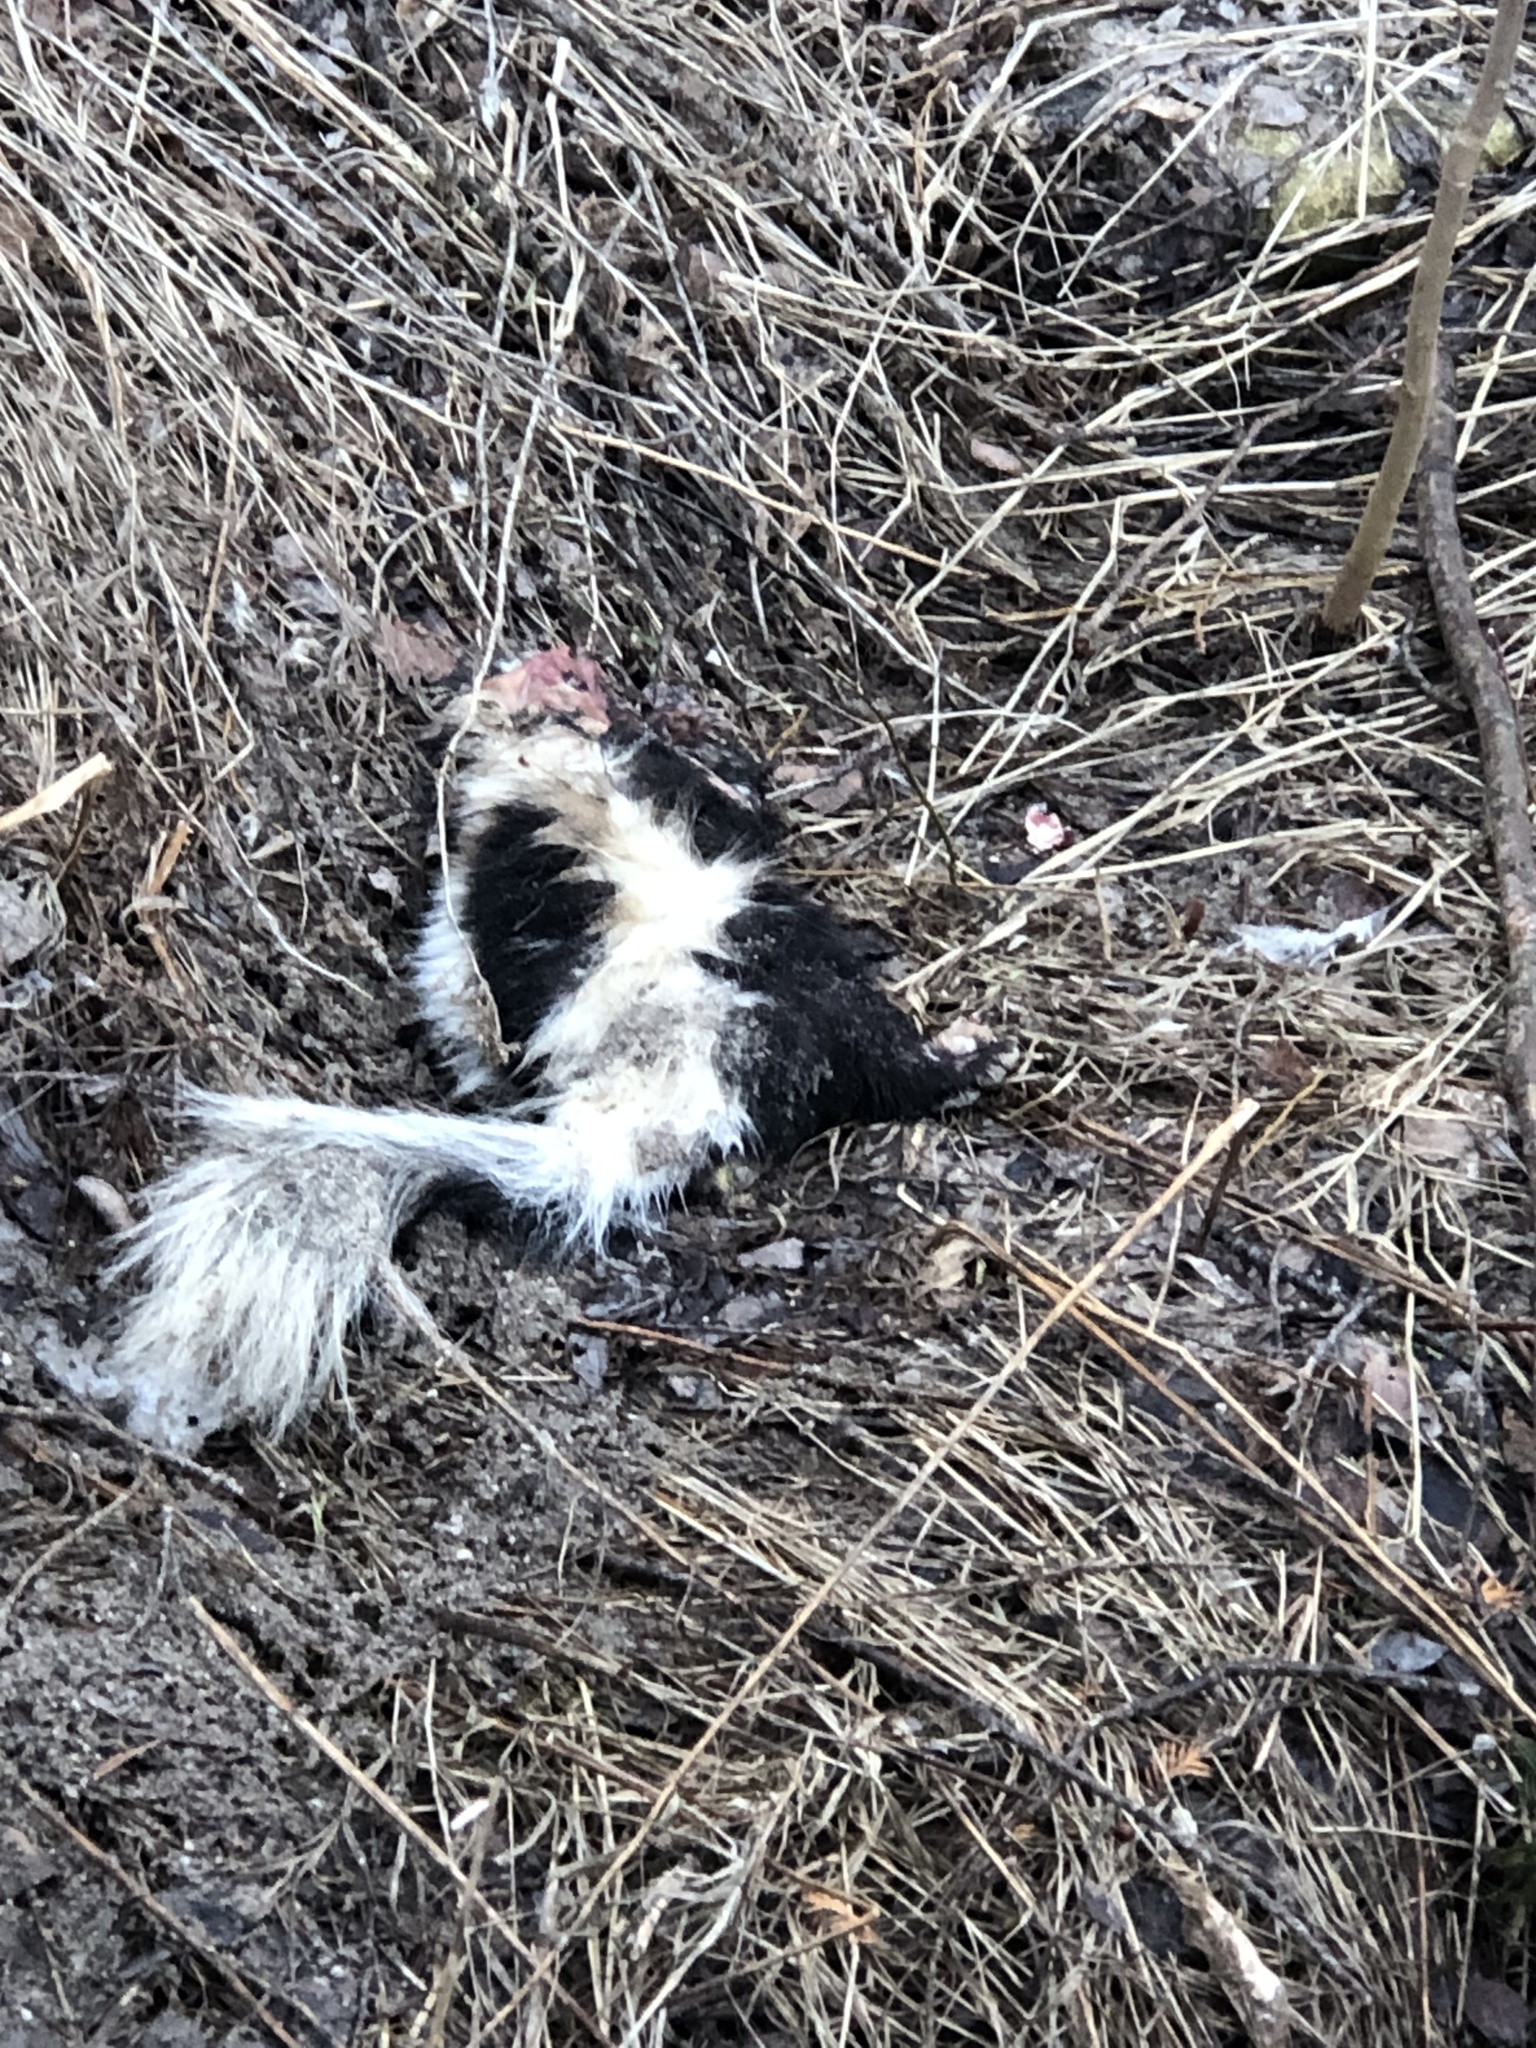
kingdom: Animalia
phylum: Chordata
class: Mammalia
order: Carnivora
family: Mephitidae
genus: Mephitis
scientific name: Mephitis mephitis
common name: Striped skunk
